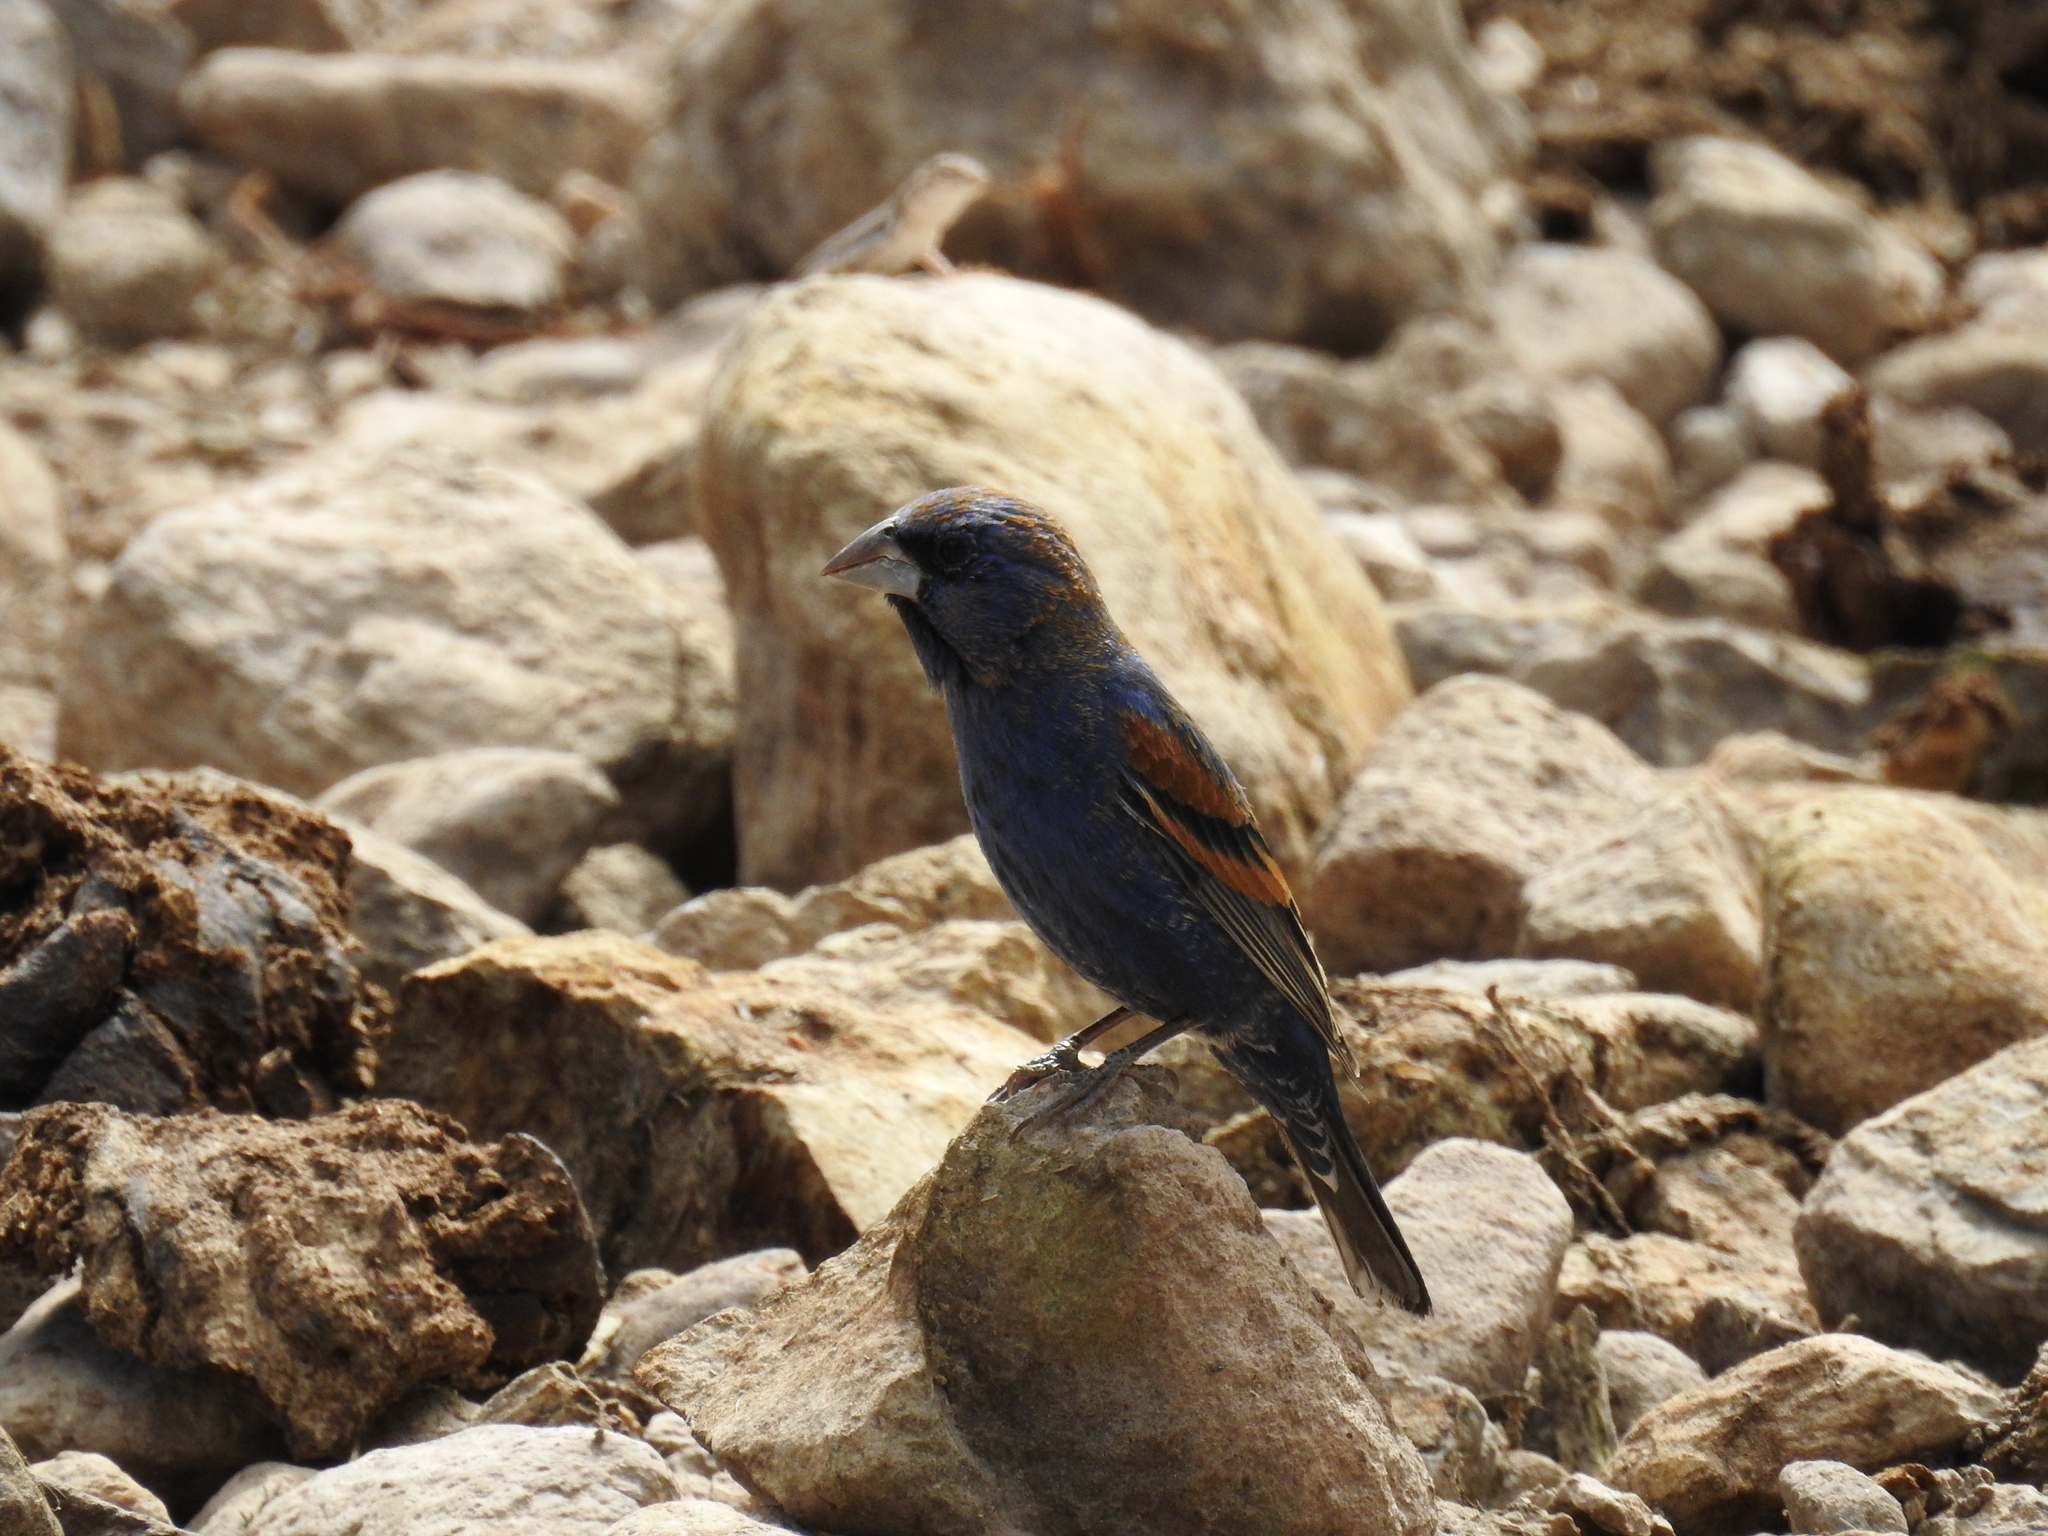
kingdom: Animalia
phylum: Chordata
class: Aves
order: Passeriformes
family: Cardinalidae
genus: Passerina
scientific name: Passerina caerulea
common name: Blue grosbeak
